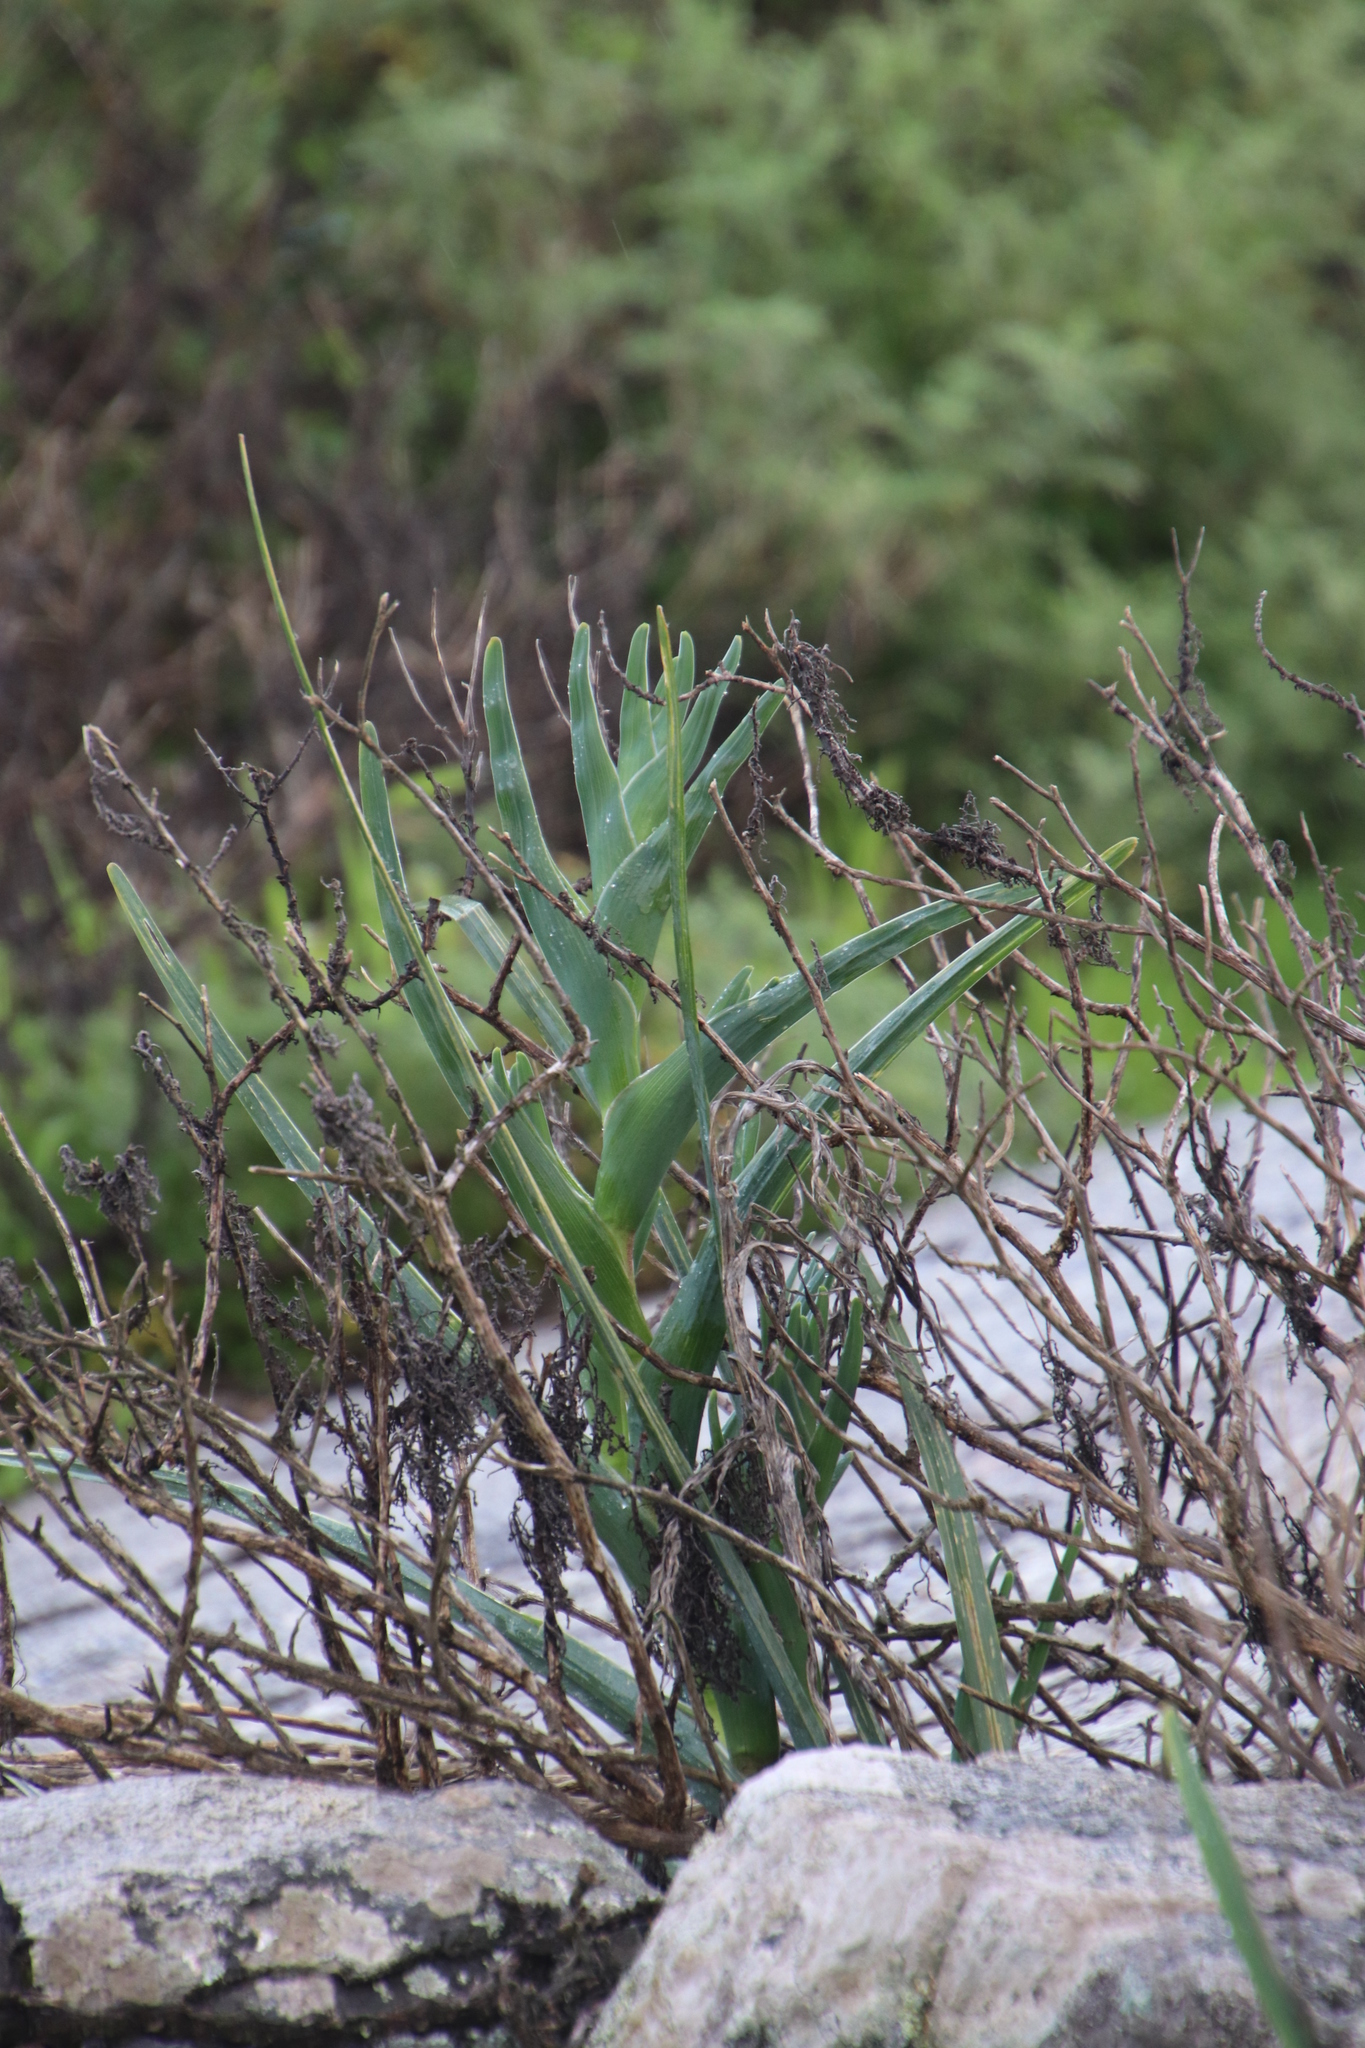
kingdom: Plantae
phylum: Tracheophyta
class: Liliopsida
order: Asparagales
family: Iridaceae
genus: Ferraria
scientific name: Ferraria crispa
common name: Black-flag
